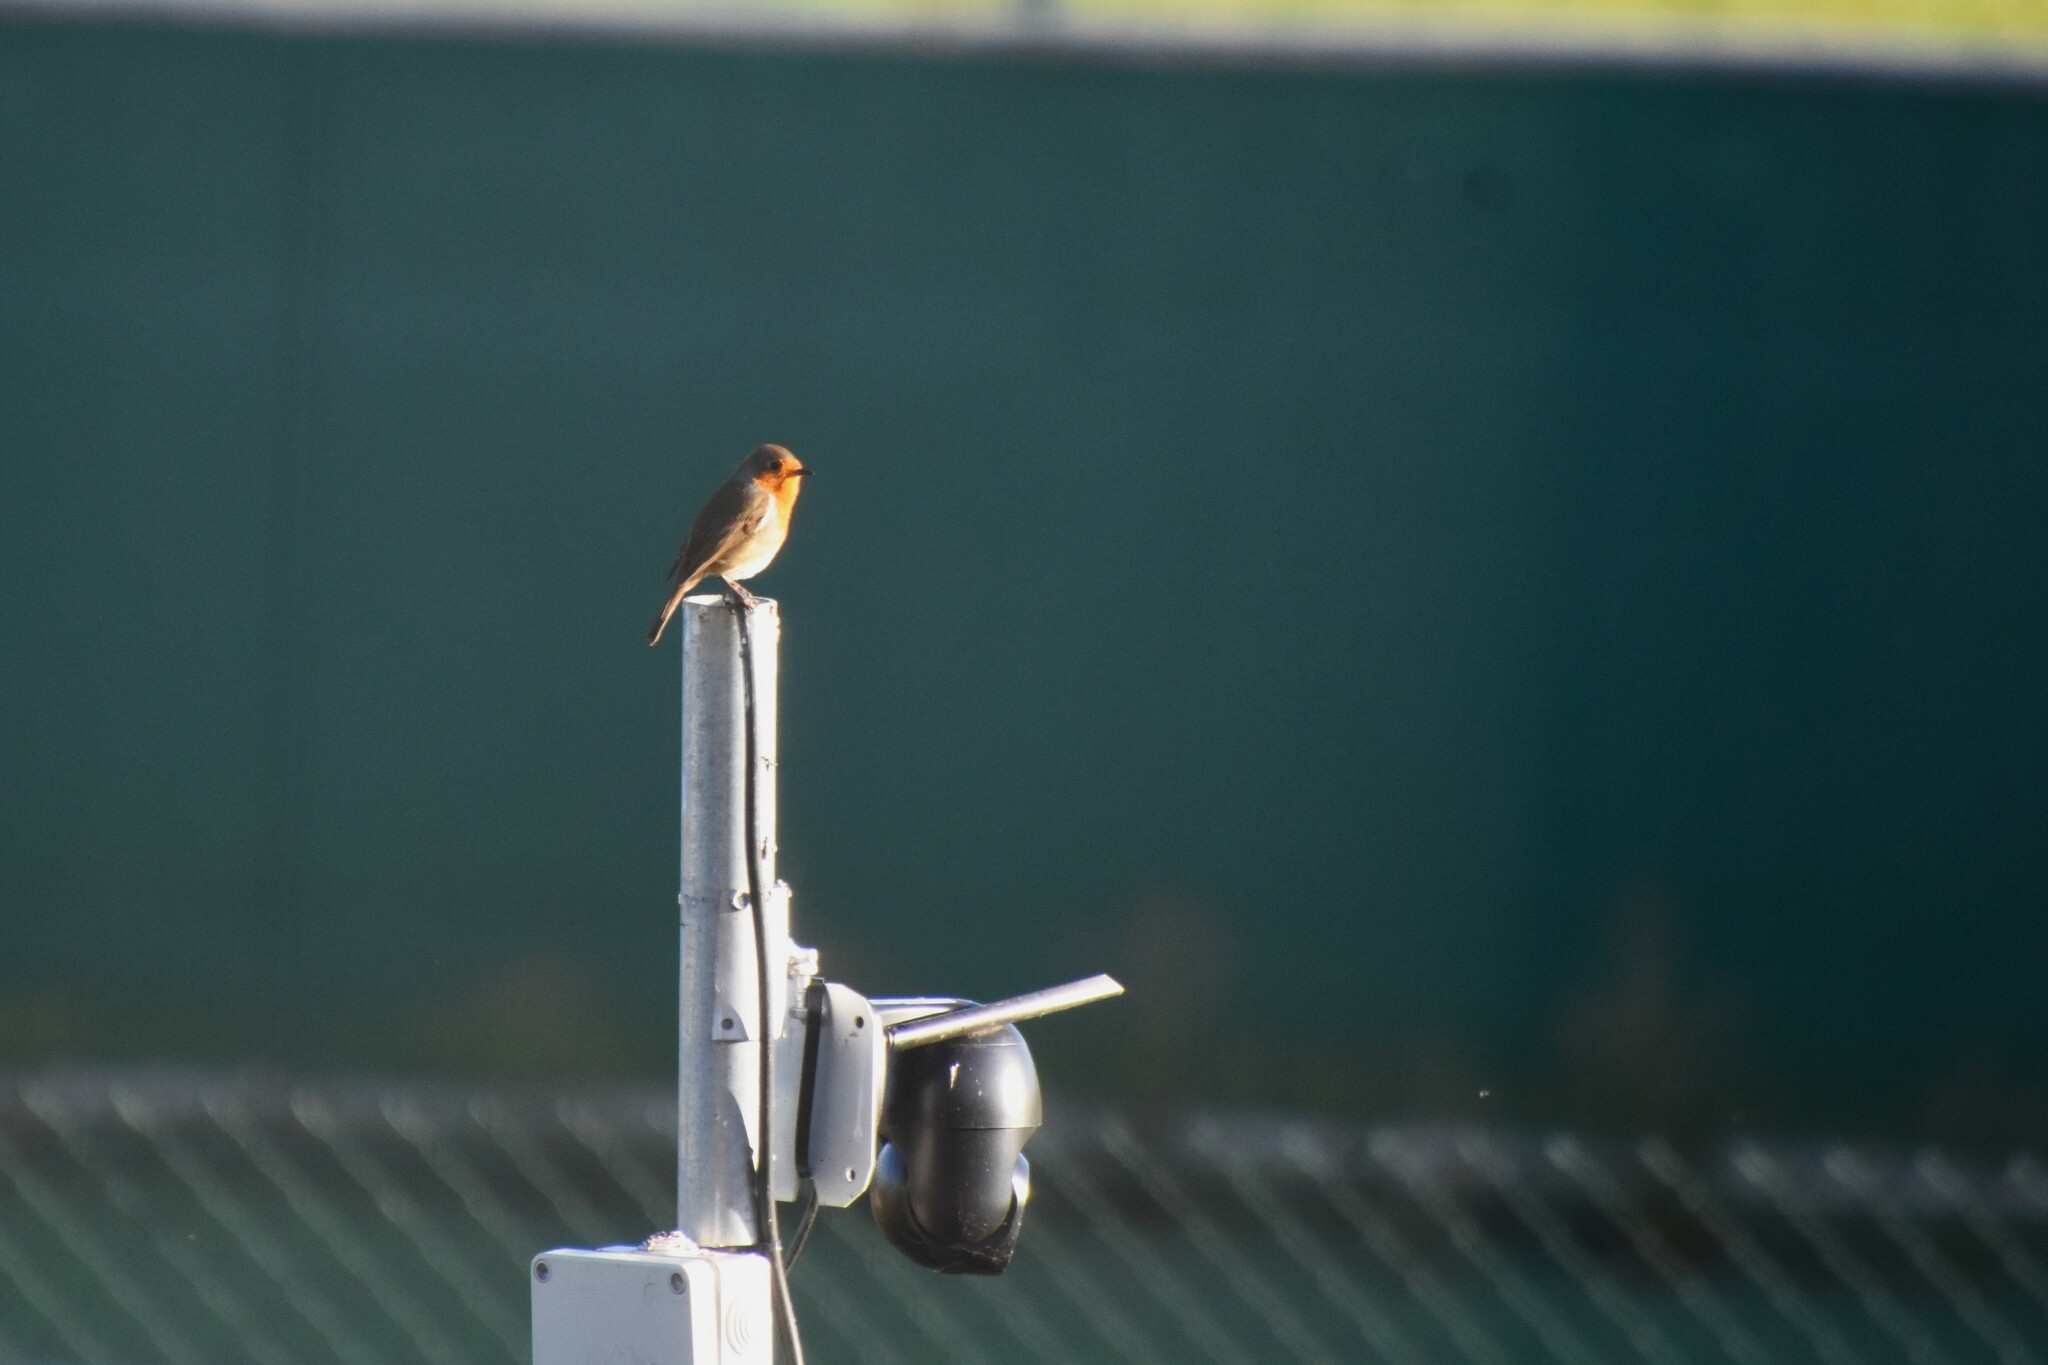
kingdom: Animalia
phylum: Chordata
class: Aves
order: Passeriformes
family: Muscicapidae
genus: Erithacus
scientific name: Erithacus rubecula
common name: European robin
